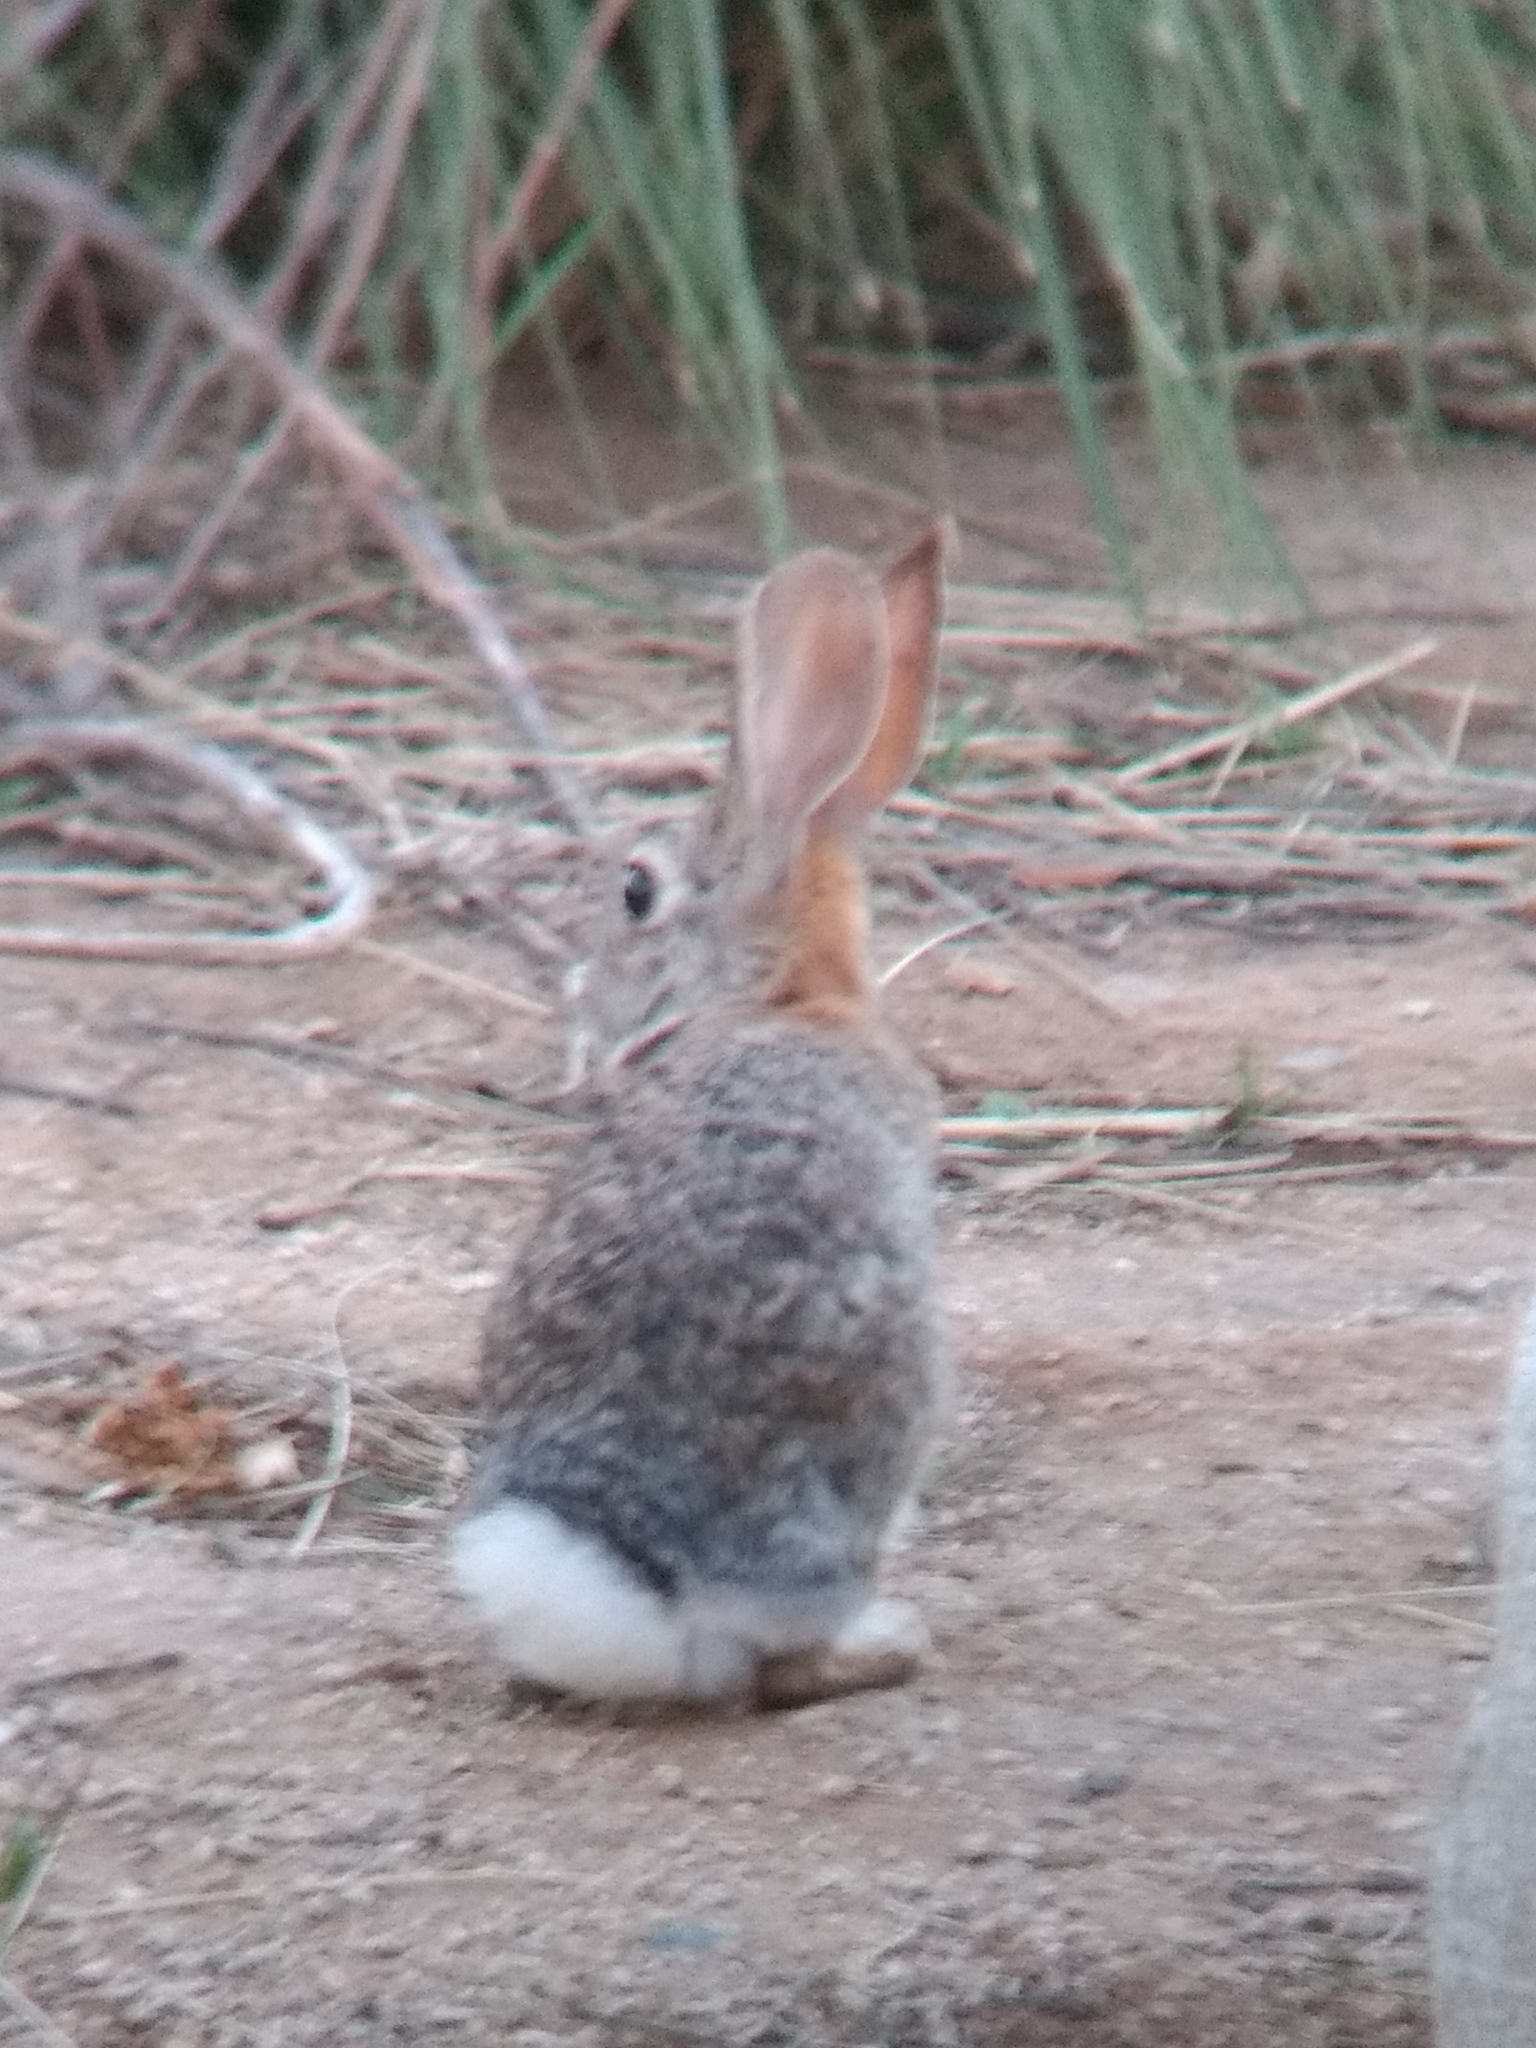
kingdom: Animalia
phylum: Chordata
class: Mammalia
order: Lagomorpha
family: Leporidae
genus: Sylvilagus
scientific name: Sylvilagus audubonii
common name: Desert cottontail
